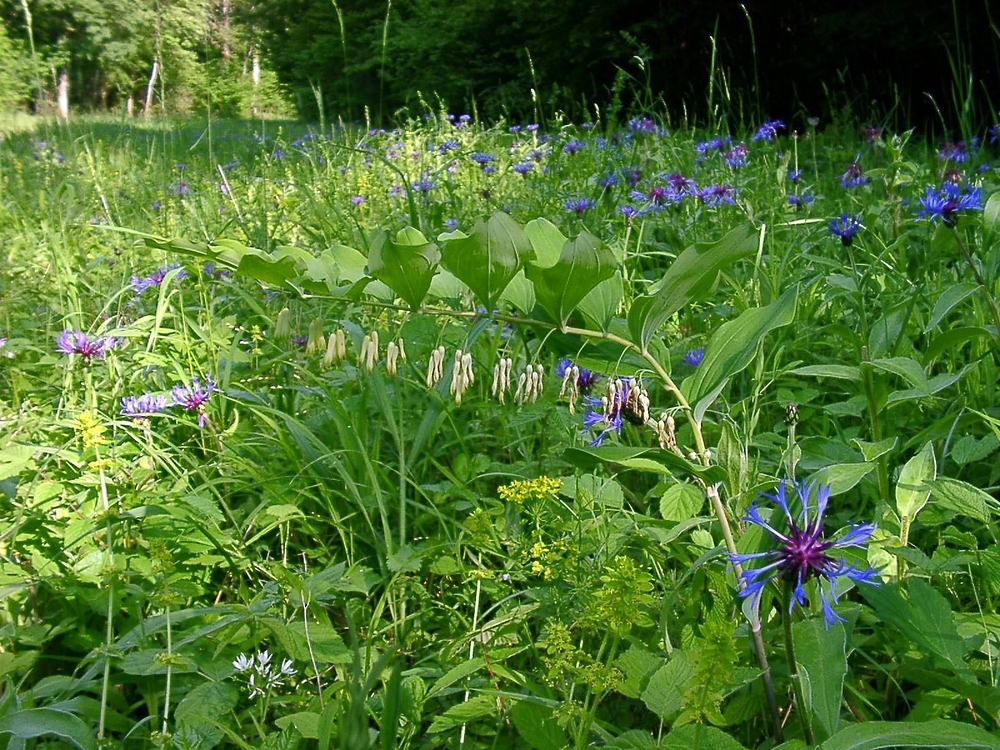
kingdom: Plantae
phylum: Tracheophyta
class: Liliopsida
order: Asparagales
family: Asparagaceae
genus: Polygonatum
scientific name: Polygonatum multiflorum
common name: Solomon's-seal
